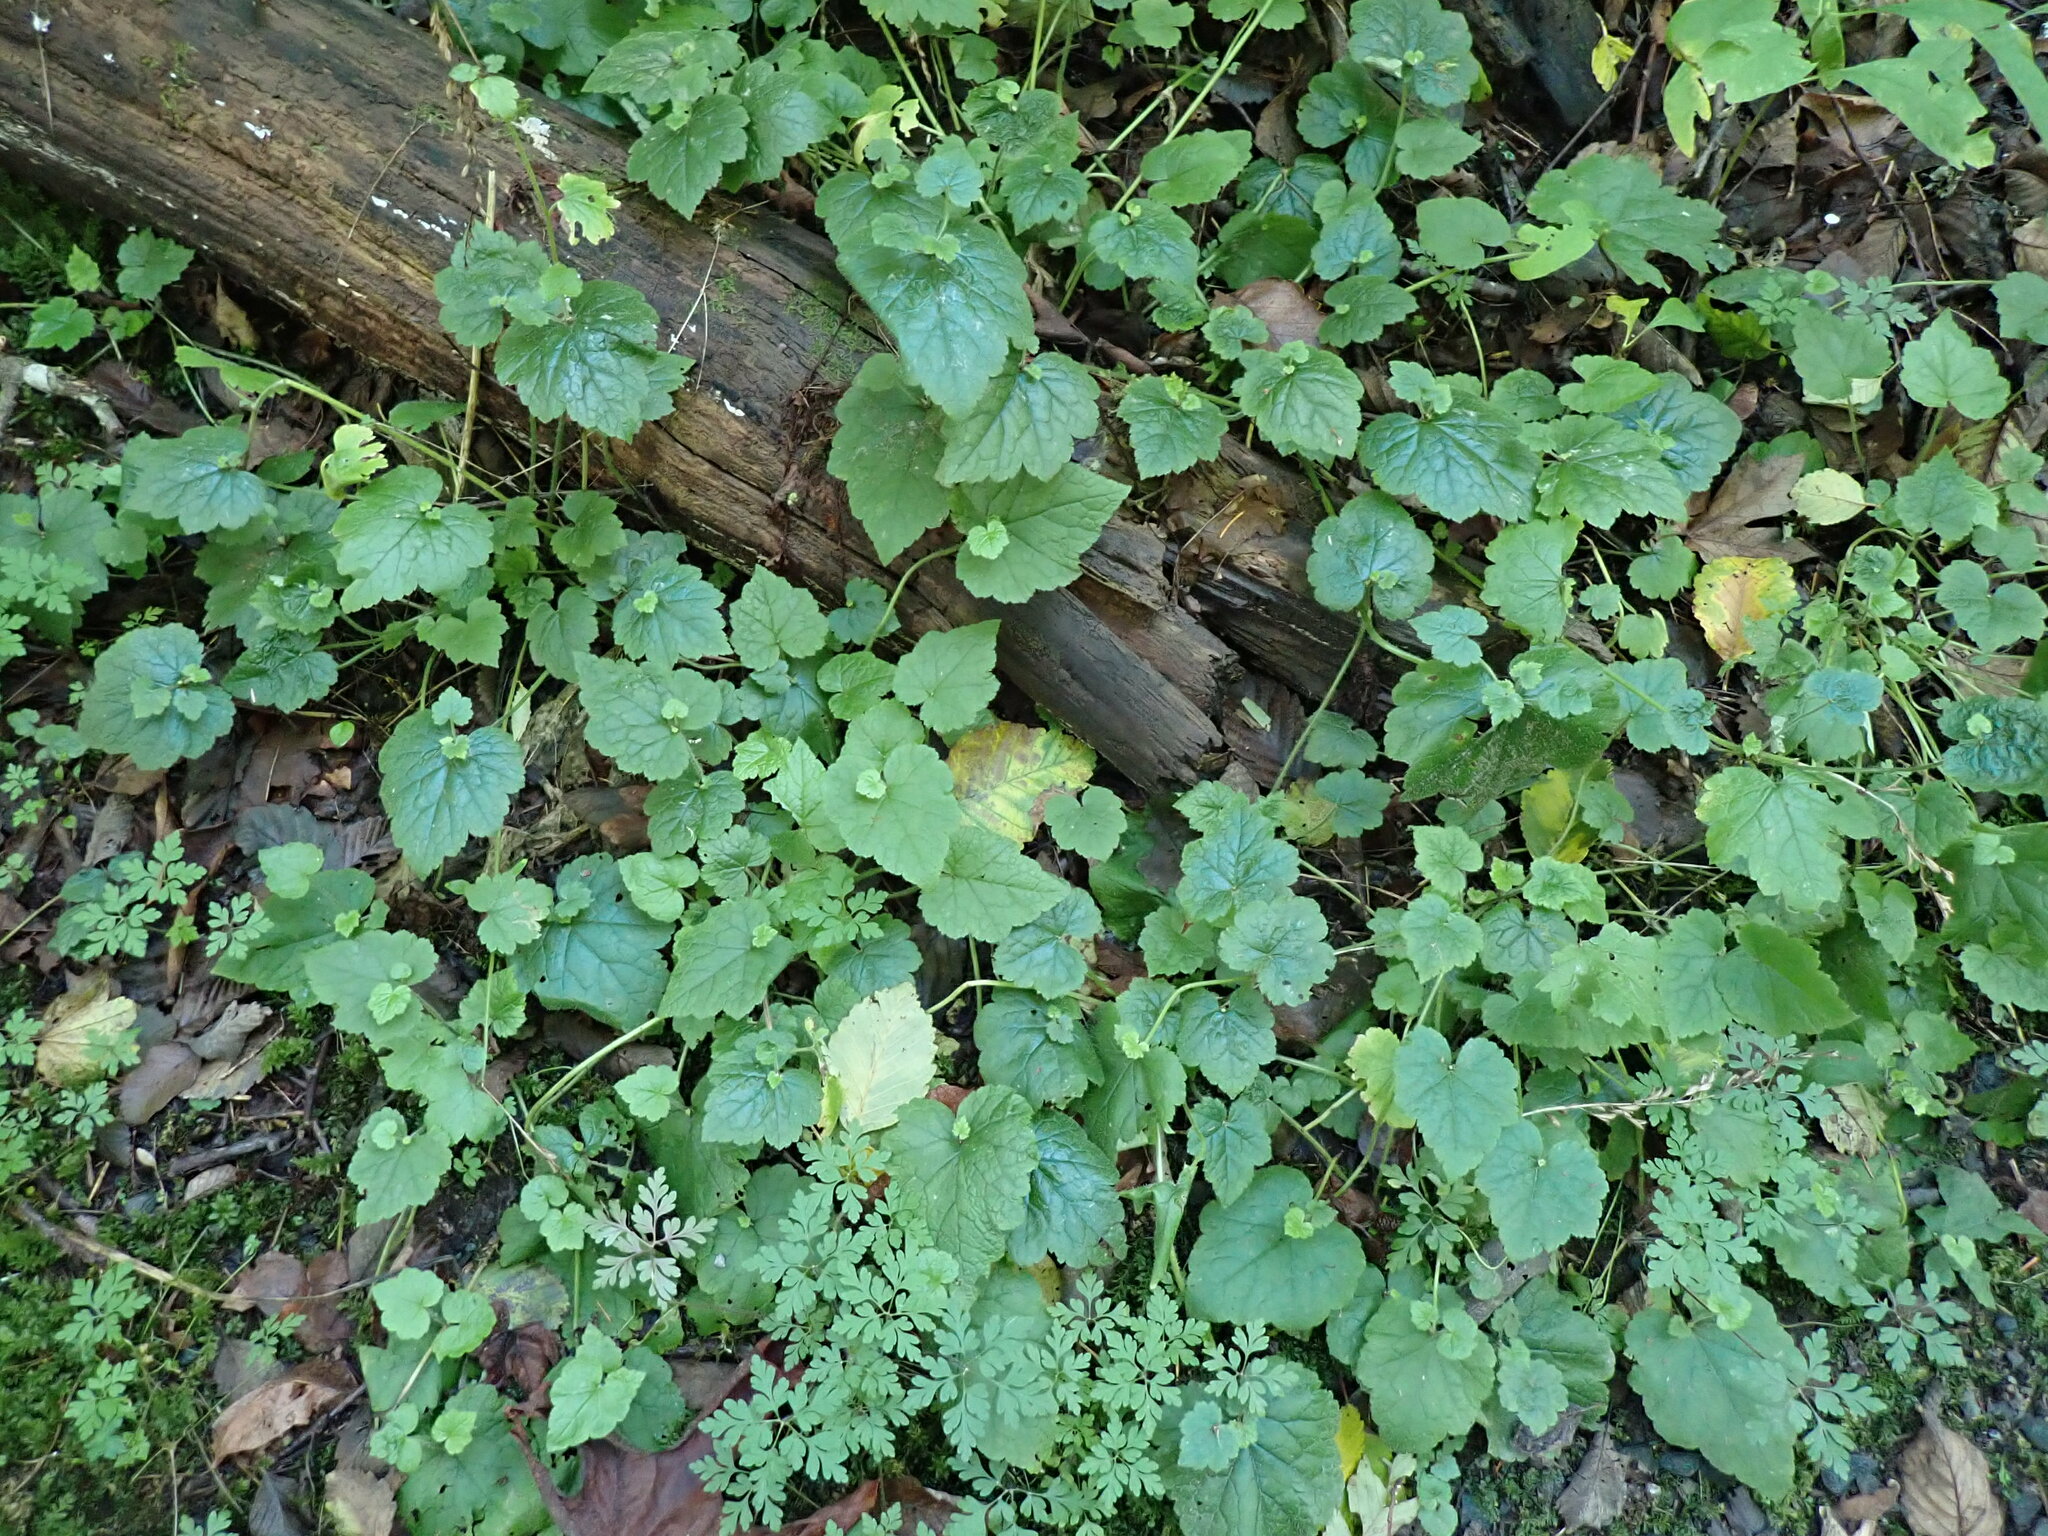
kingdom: Plantae
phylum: Tracheophyta
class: Magnoliopsida
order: Saxifragales
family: Saxifragaceae
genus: Tolmiea
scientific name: Tolmiea menziesii
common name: Pick-a-back-plant
